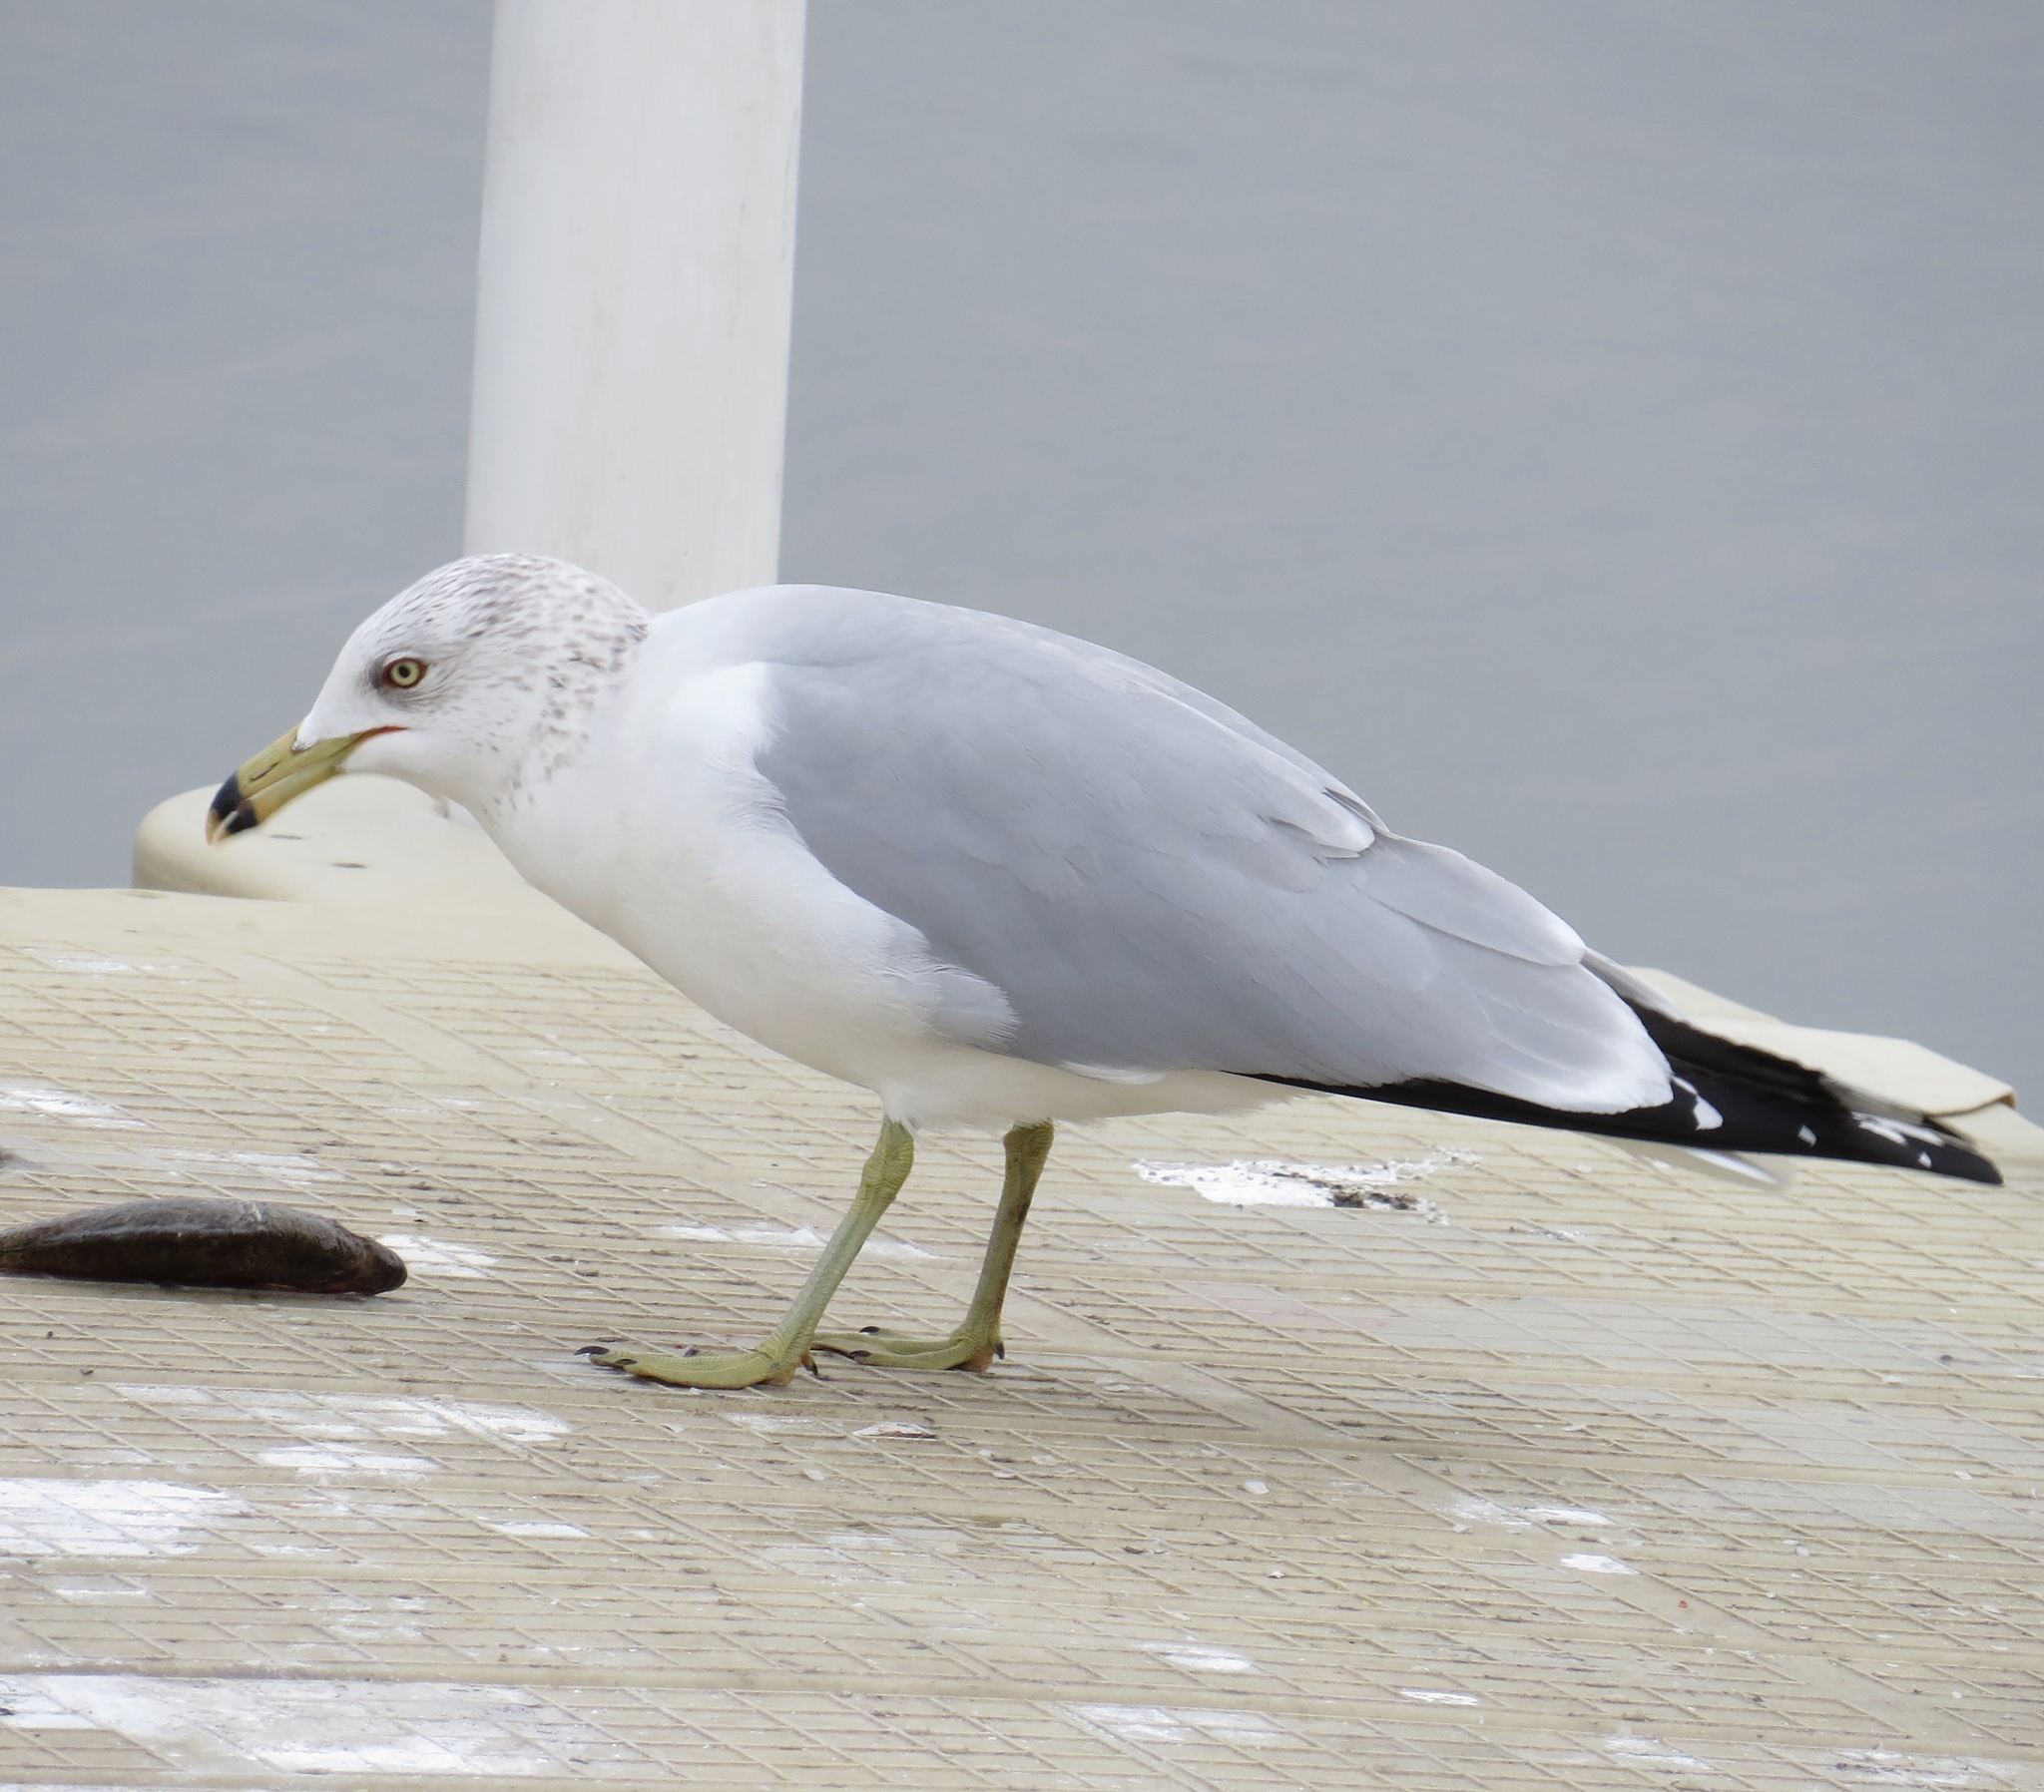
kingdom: Animalia
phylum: Chordata
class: Aves
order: Charadriiformes
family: Laridae
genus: Larus
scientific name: Larus delawarensis
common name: Ring-billed gull
